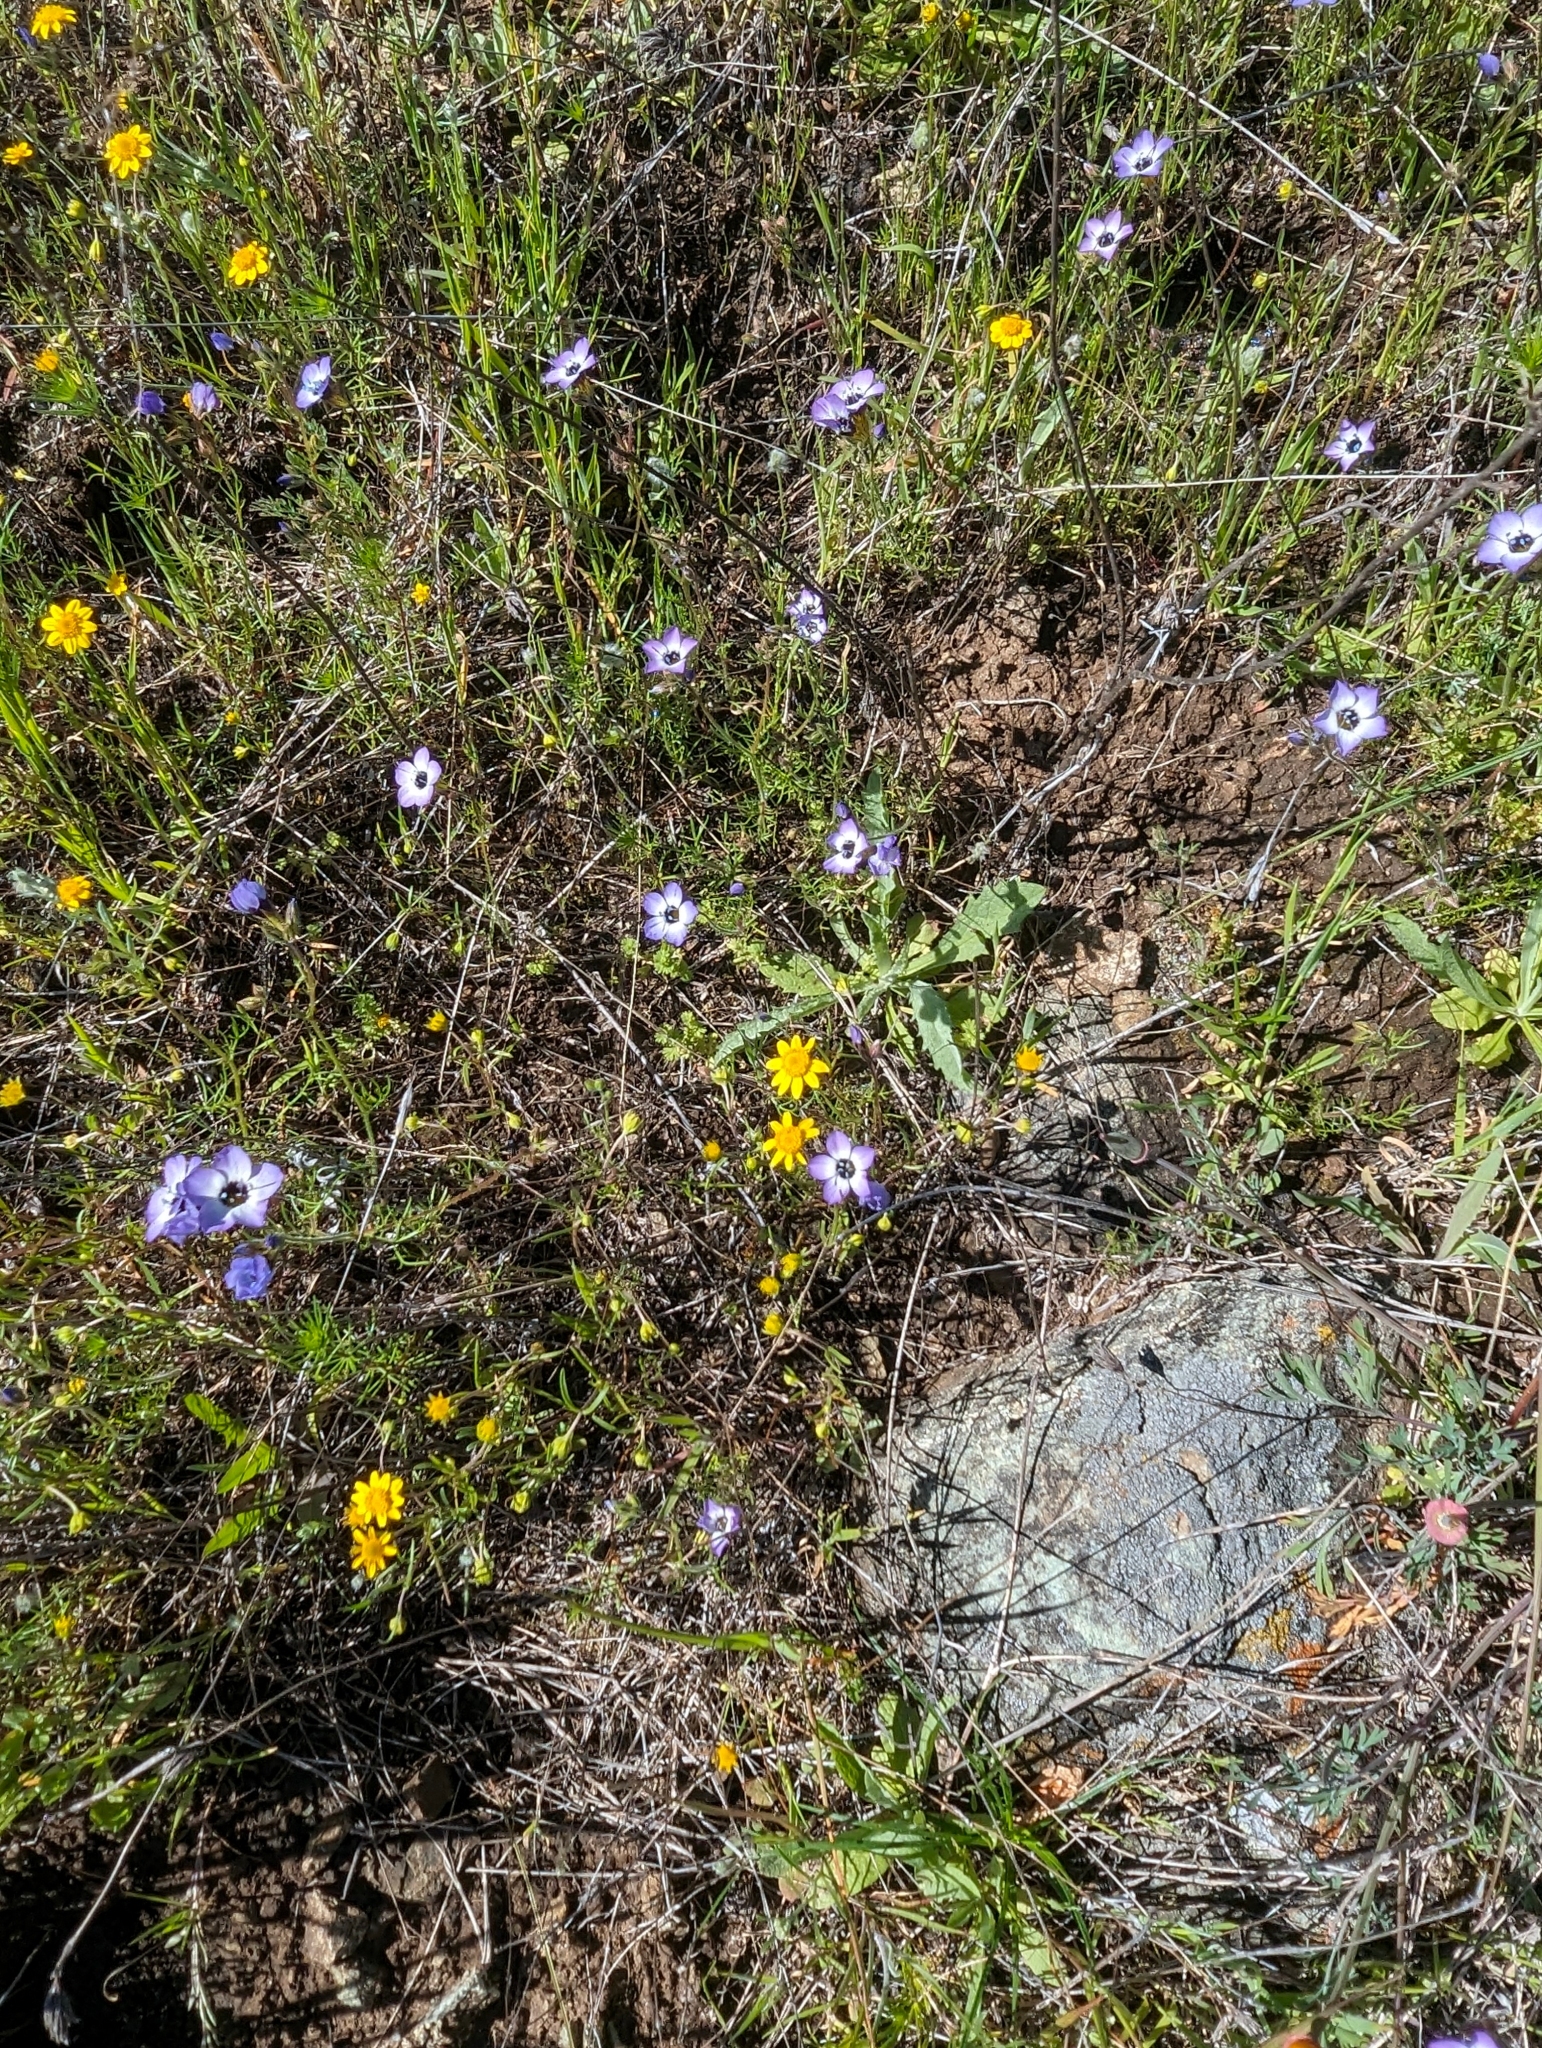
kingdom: Plantae
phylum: Tracheophyta
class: Magnoliopsida
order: Ericales
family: Polemoniaceae
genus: Gilia
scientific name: Gilia tricolor
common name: Bird's-eyes
